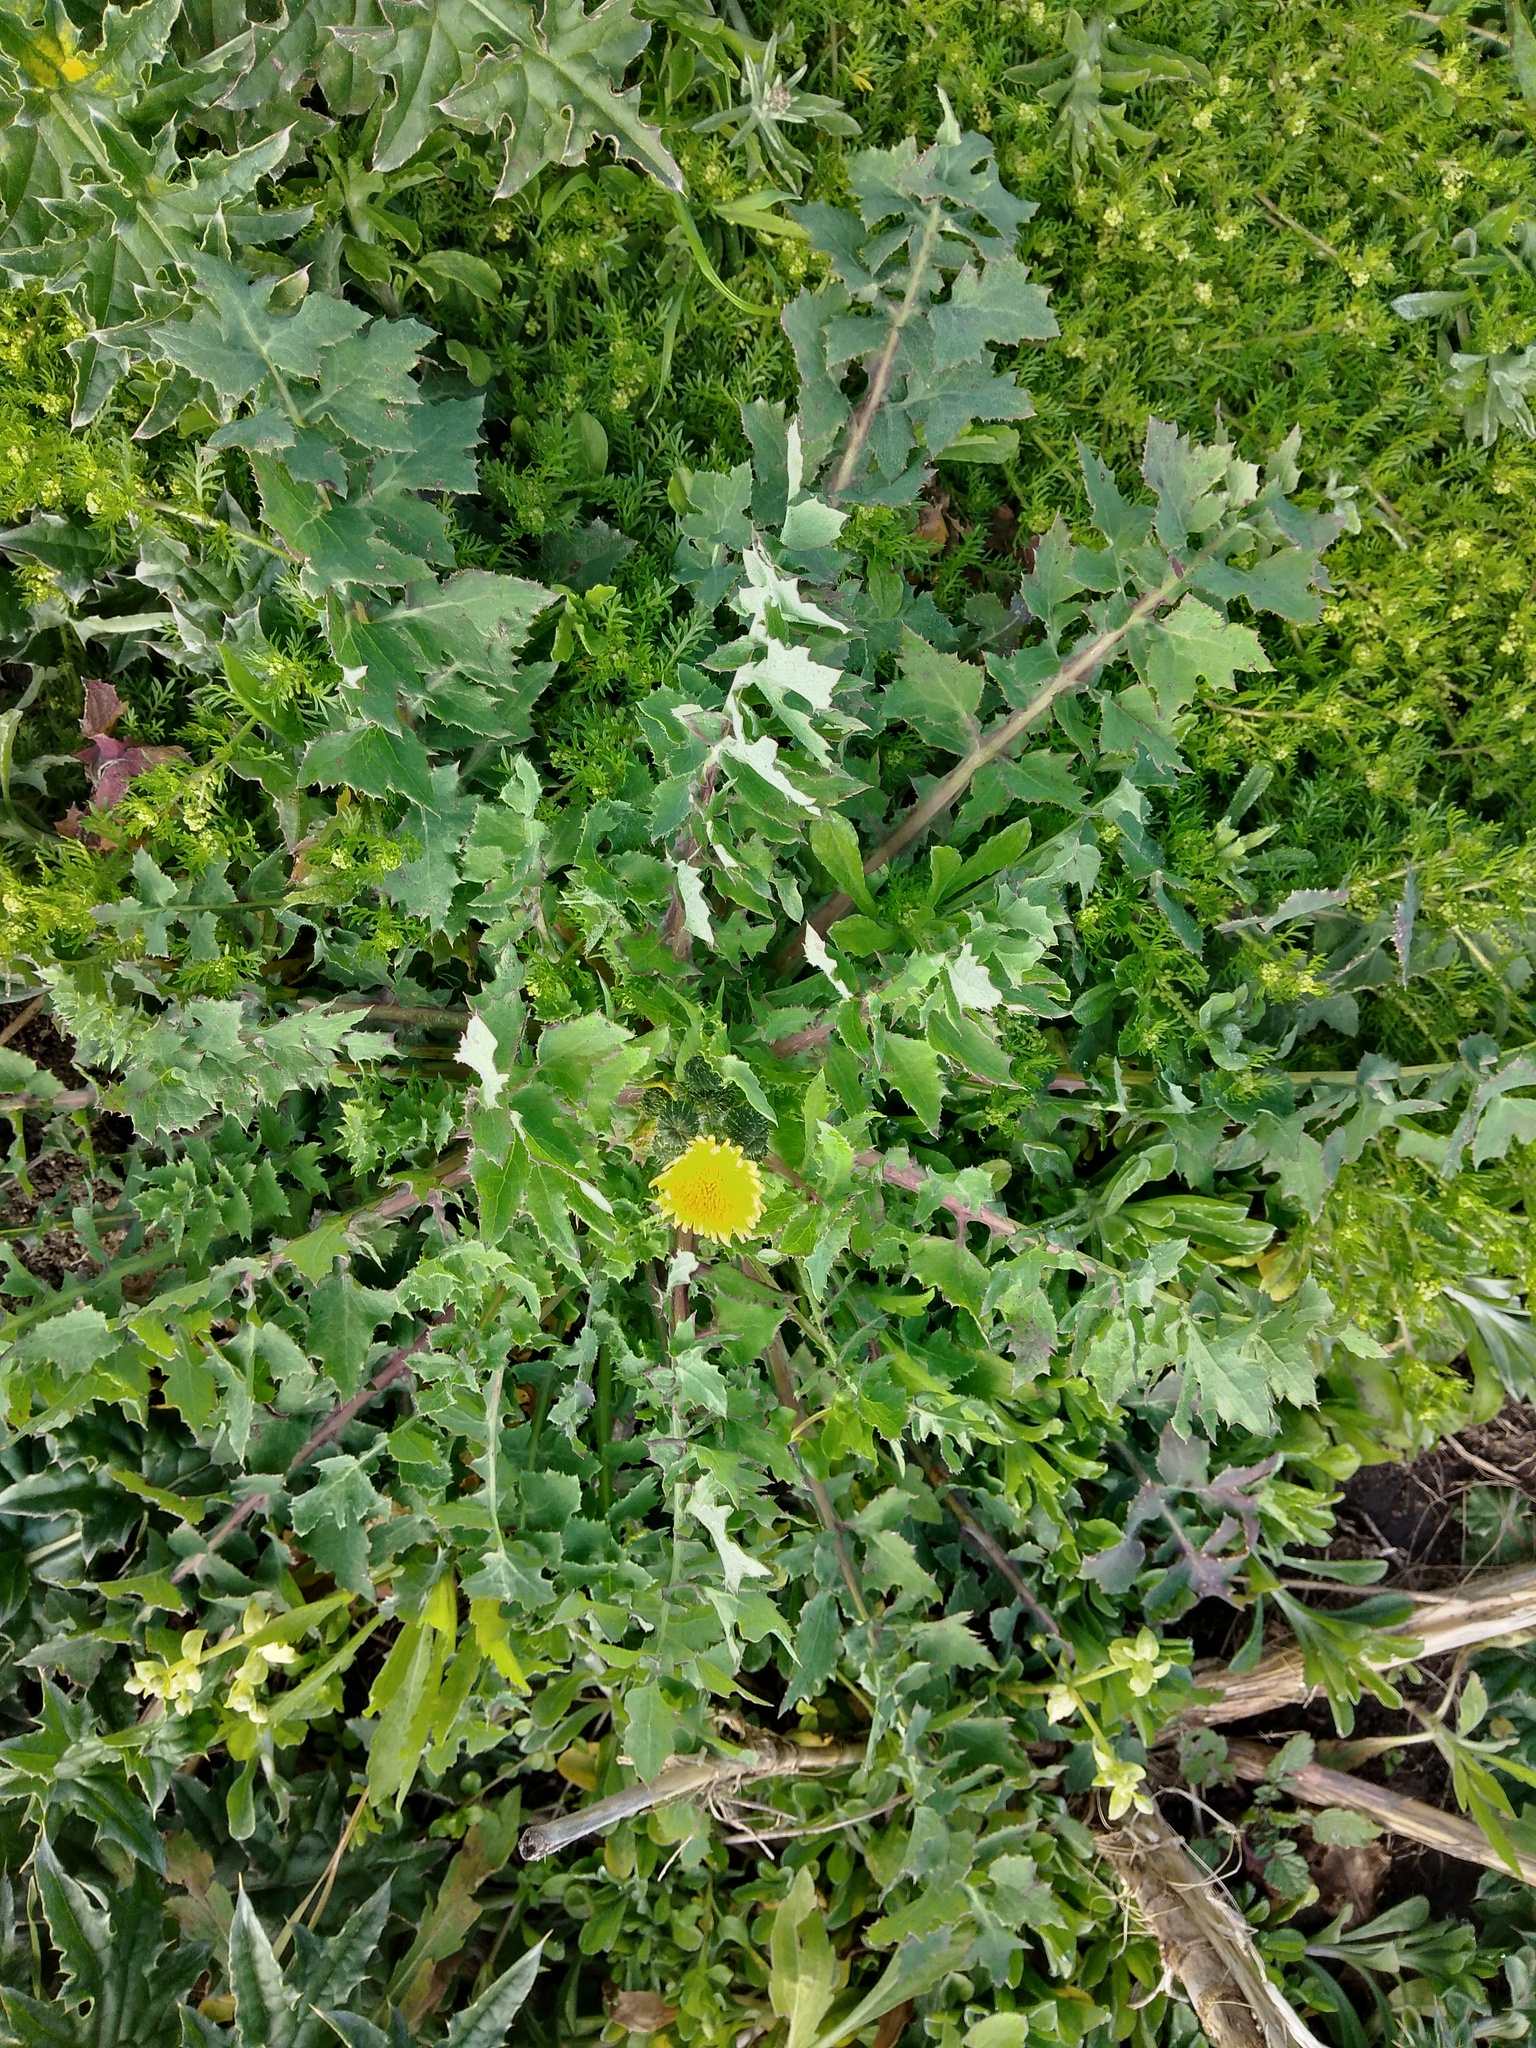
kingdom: Plantae
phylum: Tracheophyta
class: Magnoliopsida
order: Asterales
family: Asteraceae
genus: Sonchus
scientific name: Sonchus oleraceus
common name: Common sowthistle
